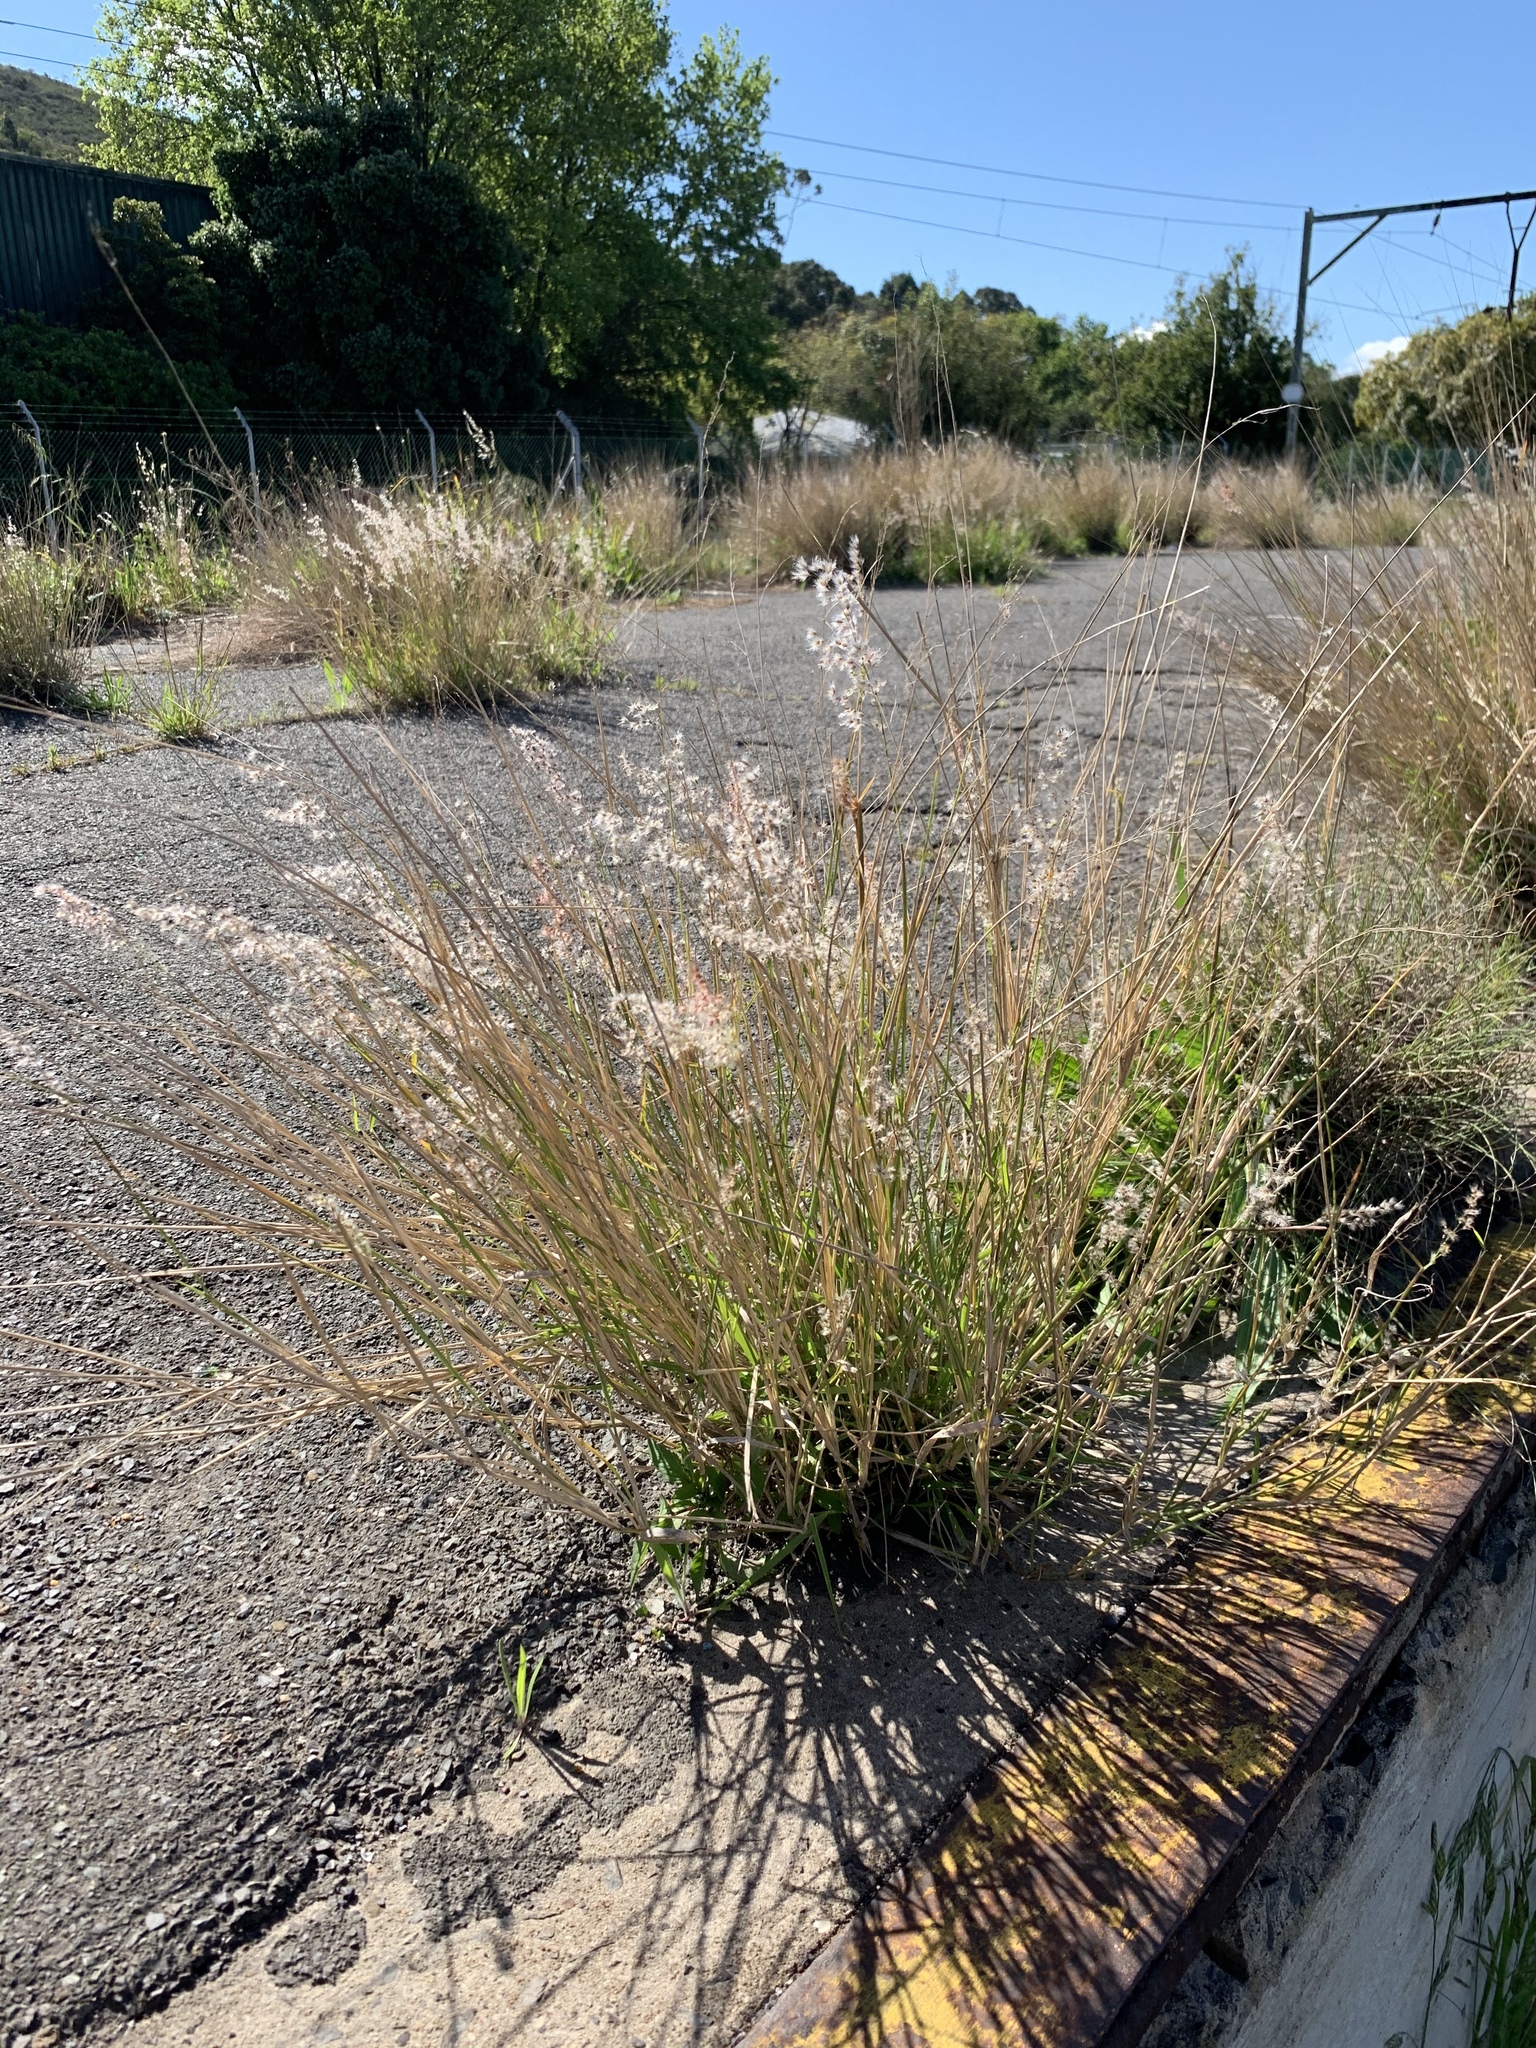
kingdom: Plantae
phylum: Tracheophyta
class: Liliopsida
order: Poales
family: Poaceae
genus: Melinis
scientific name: Melinis repens
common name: Rose natal grass
